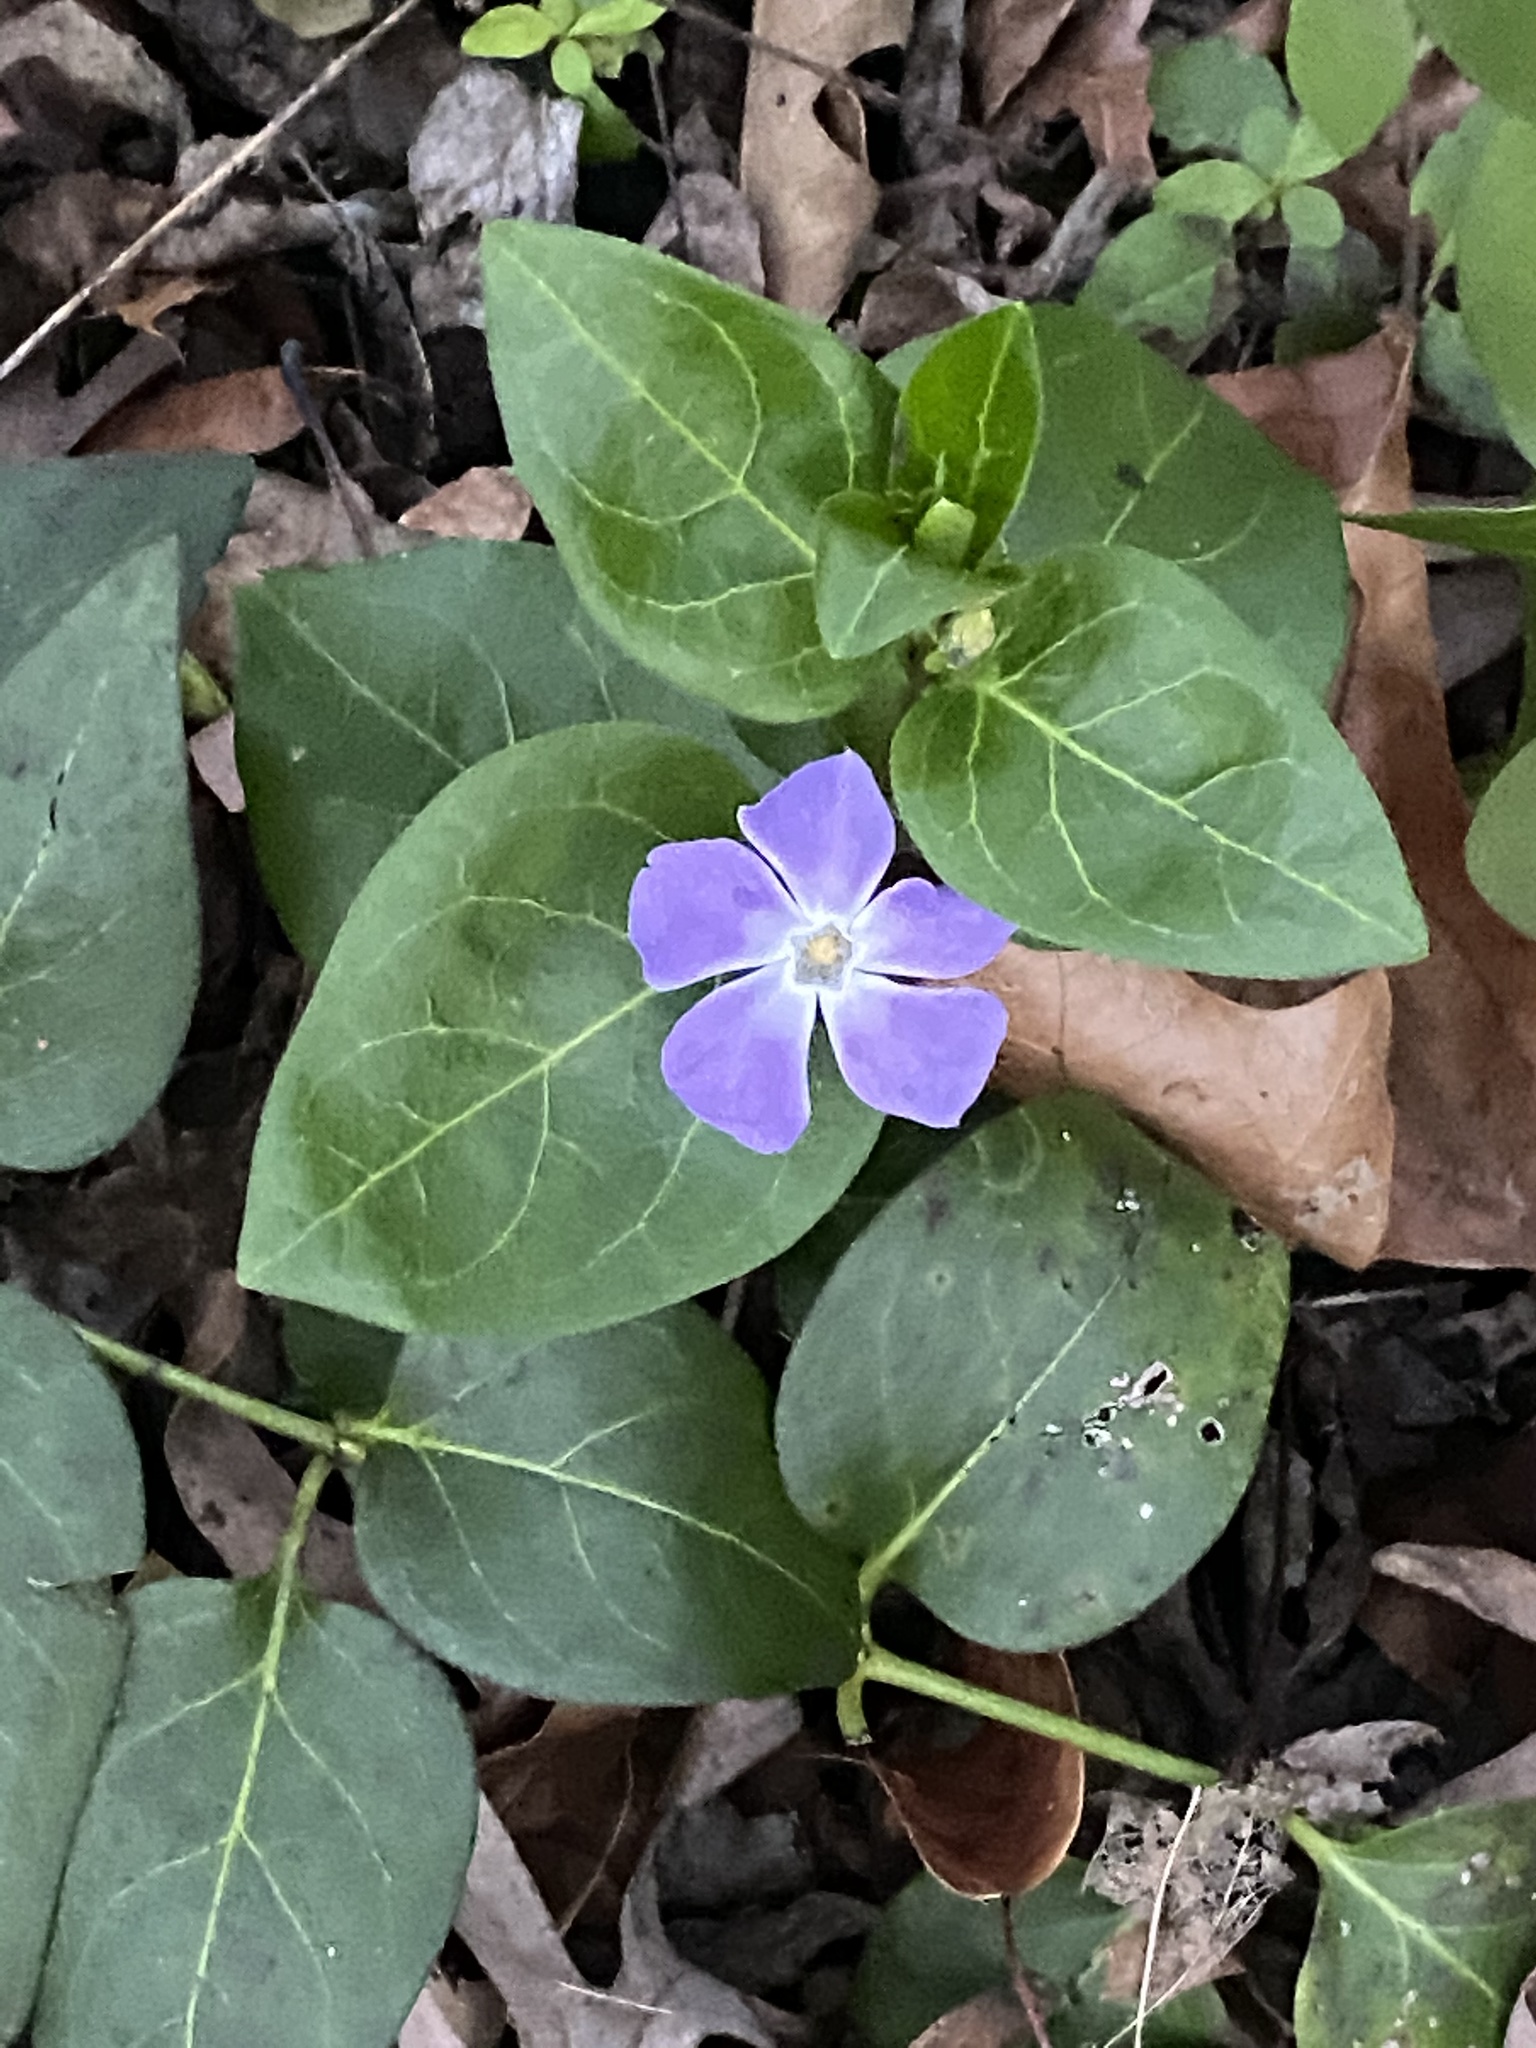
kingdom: Plantae
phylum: Tracheophyta
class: Magnoliopsida
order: Gentianales
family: Apocynaceae
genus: Vinca
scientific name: Vinca major
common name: Greater periwinkle
